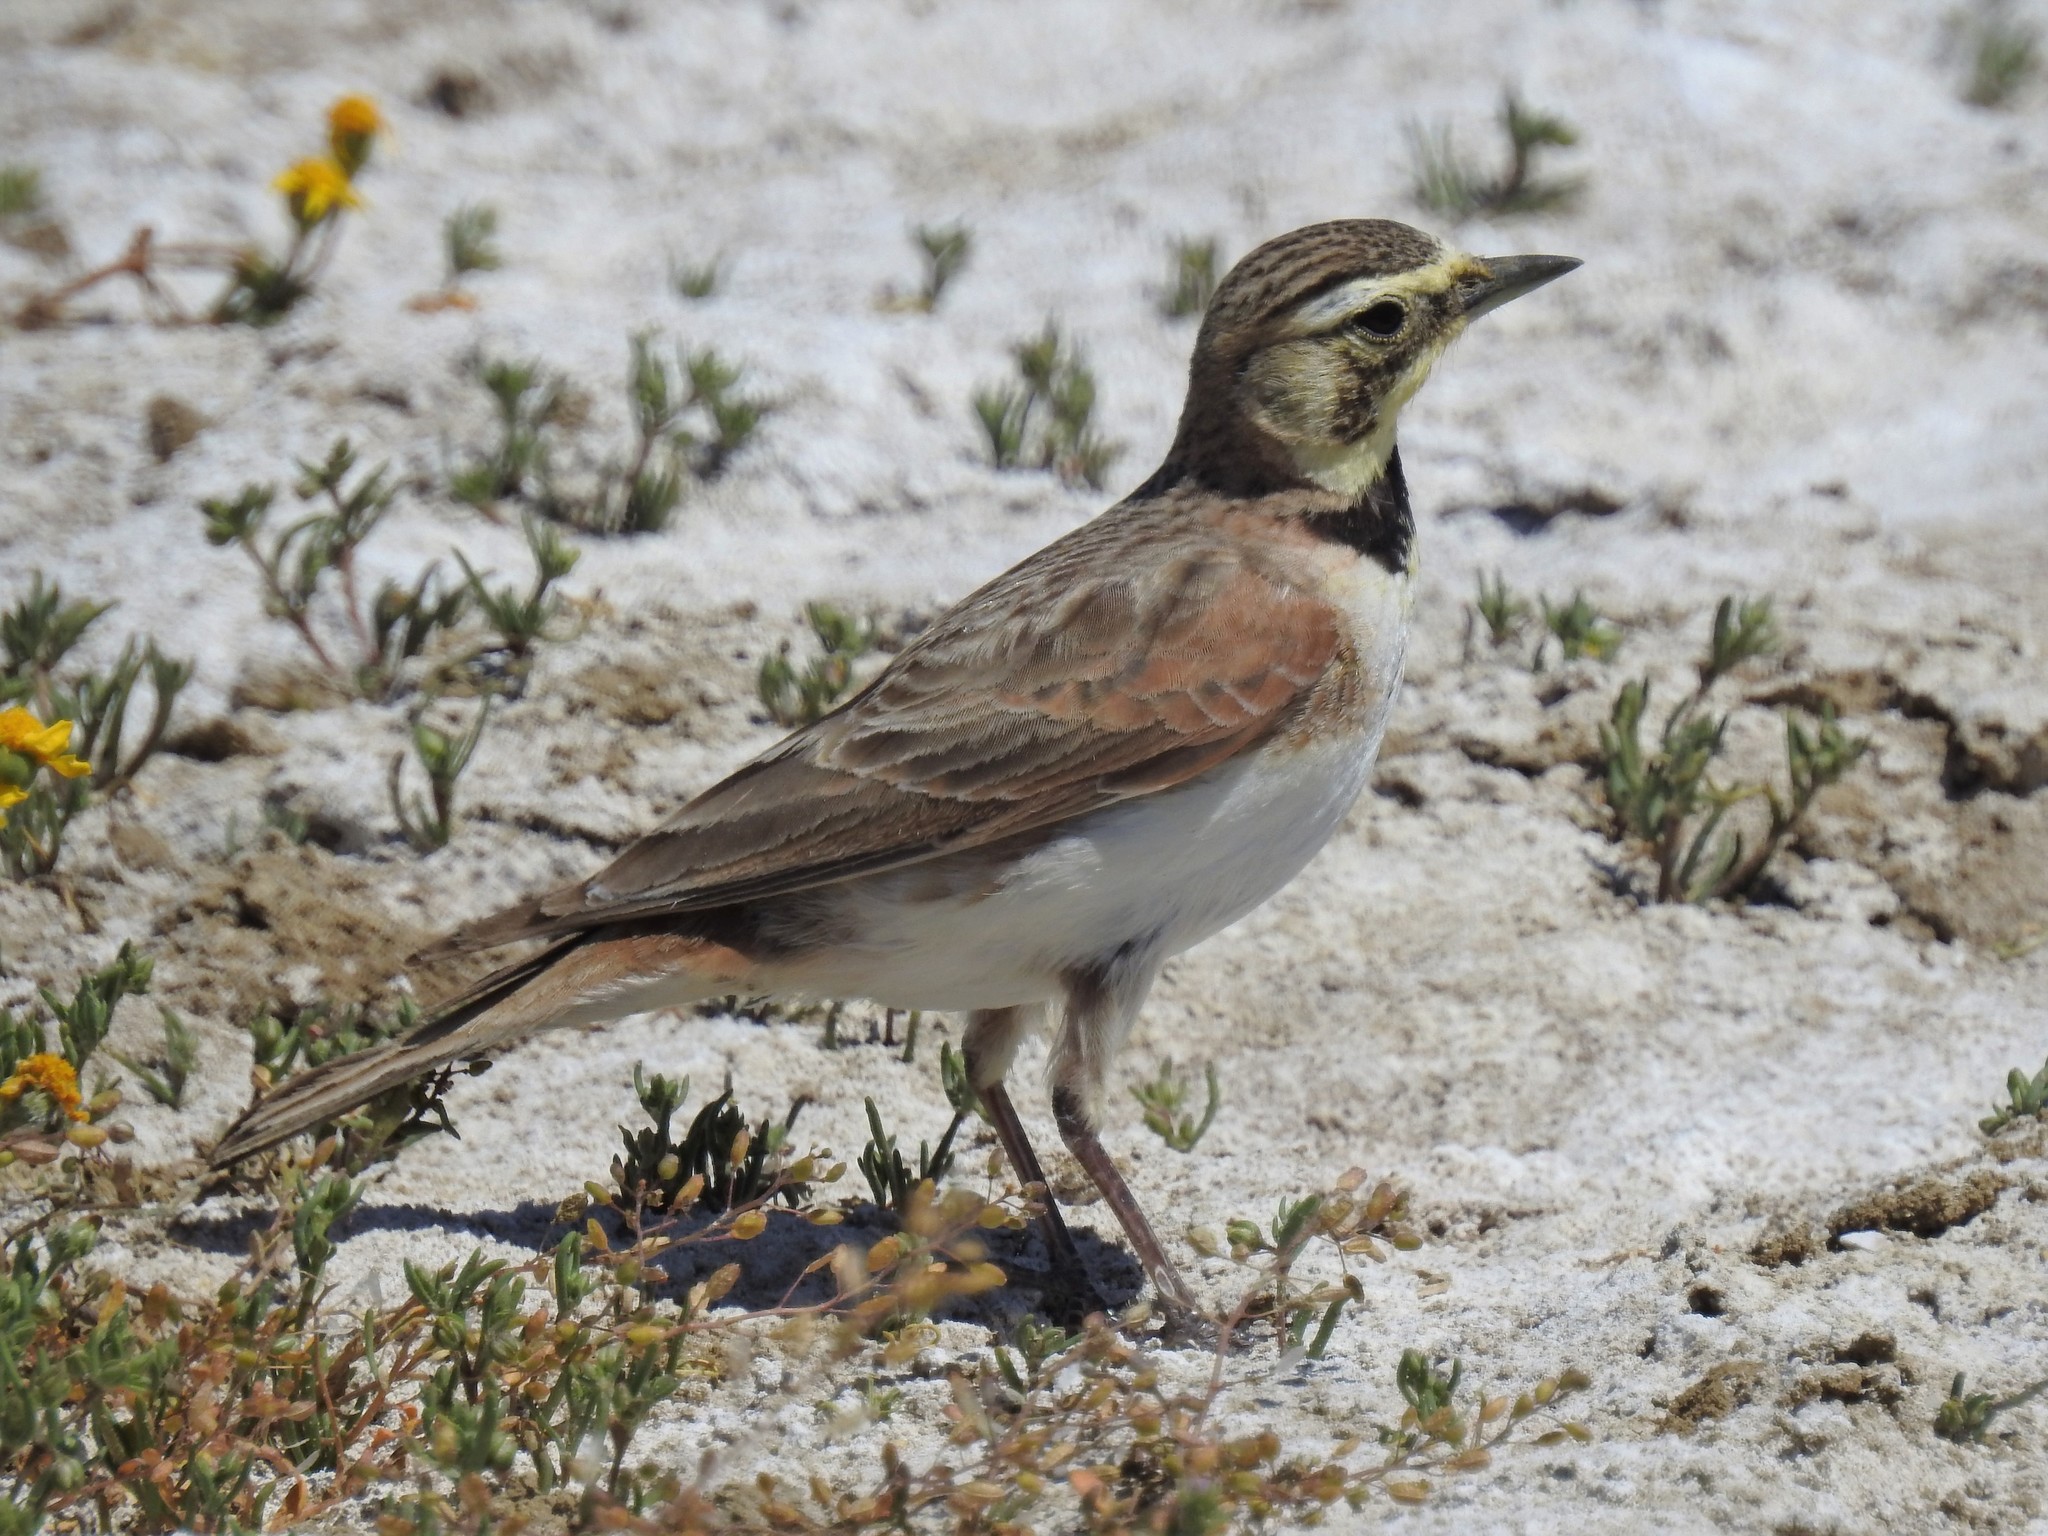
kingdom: Animalia
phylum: Chordata
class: Aves
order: Passeriformes
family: Alaudidae
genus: Eremophila
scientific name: Eremophila alpestris
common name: Horned lark
